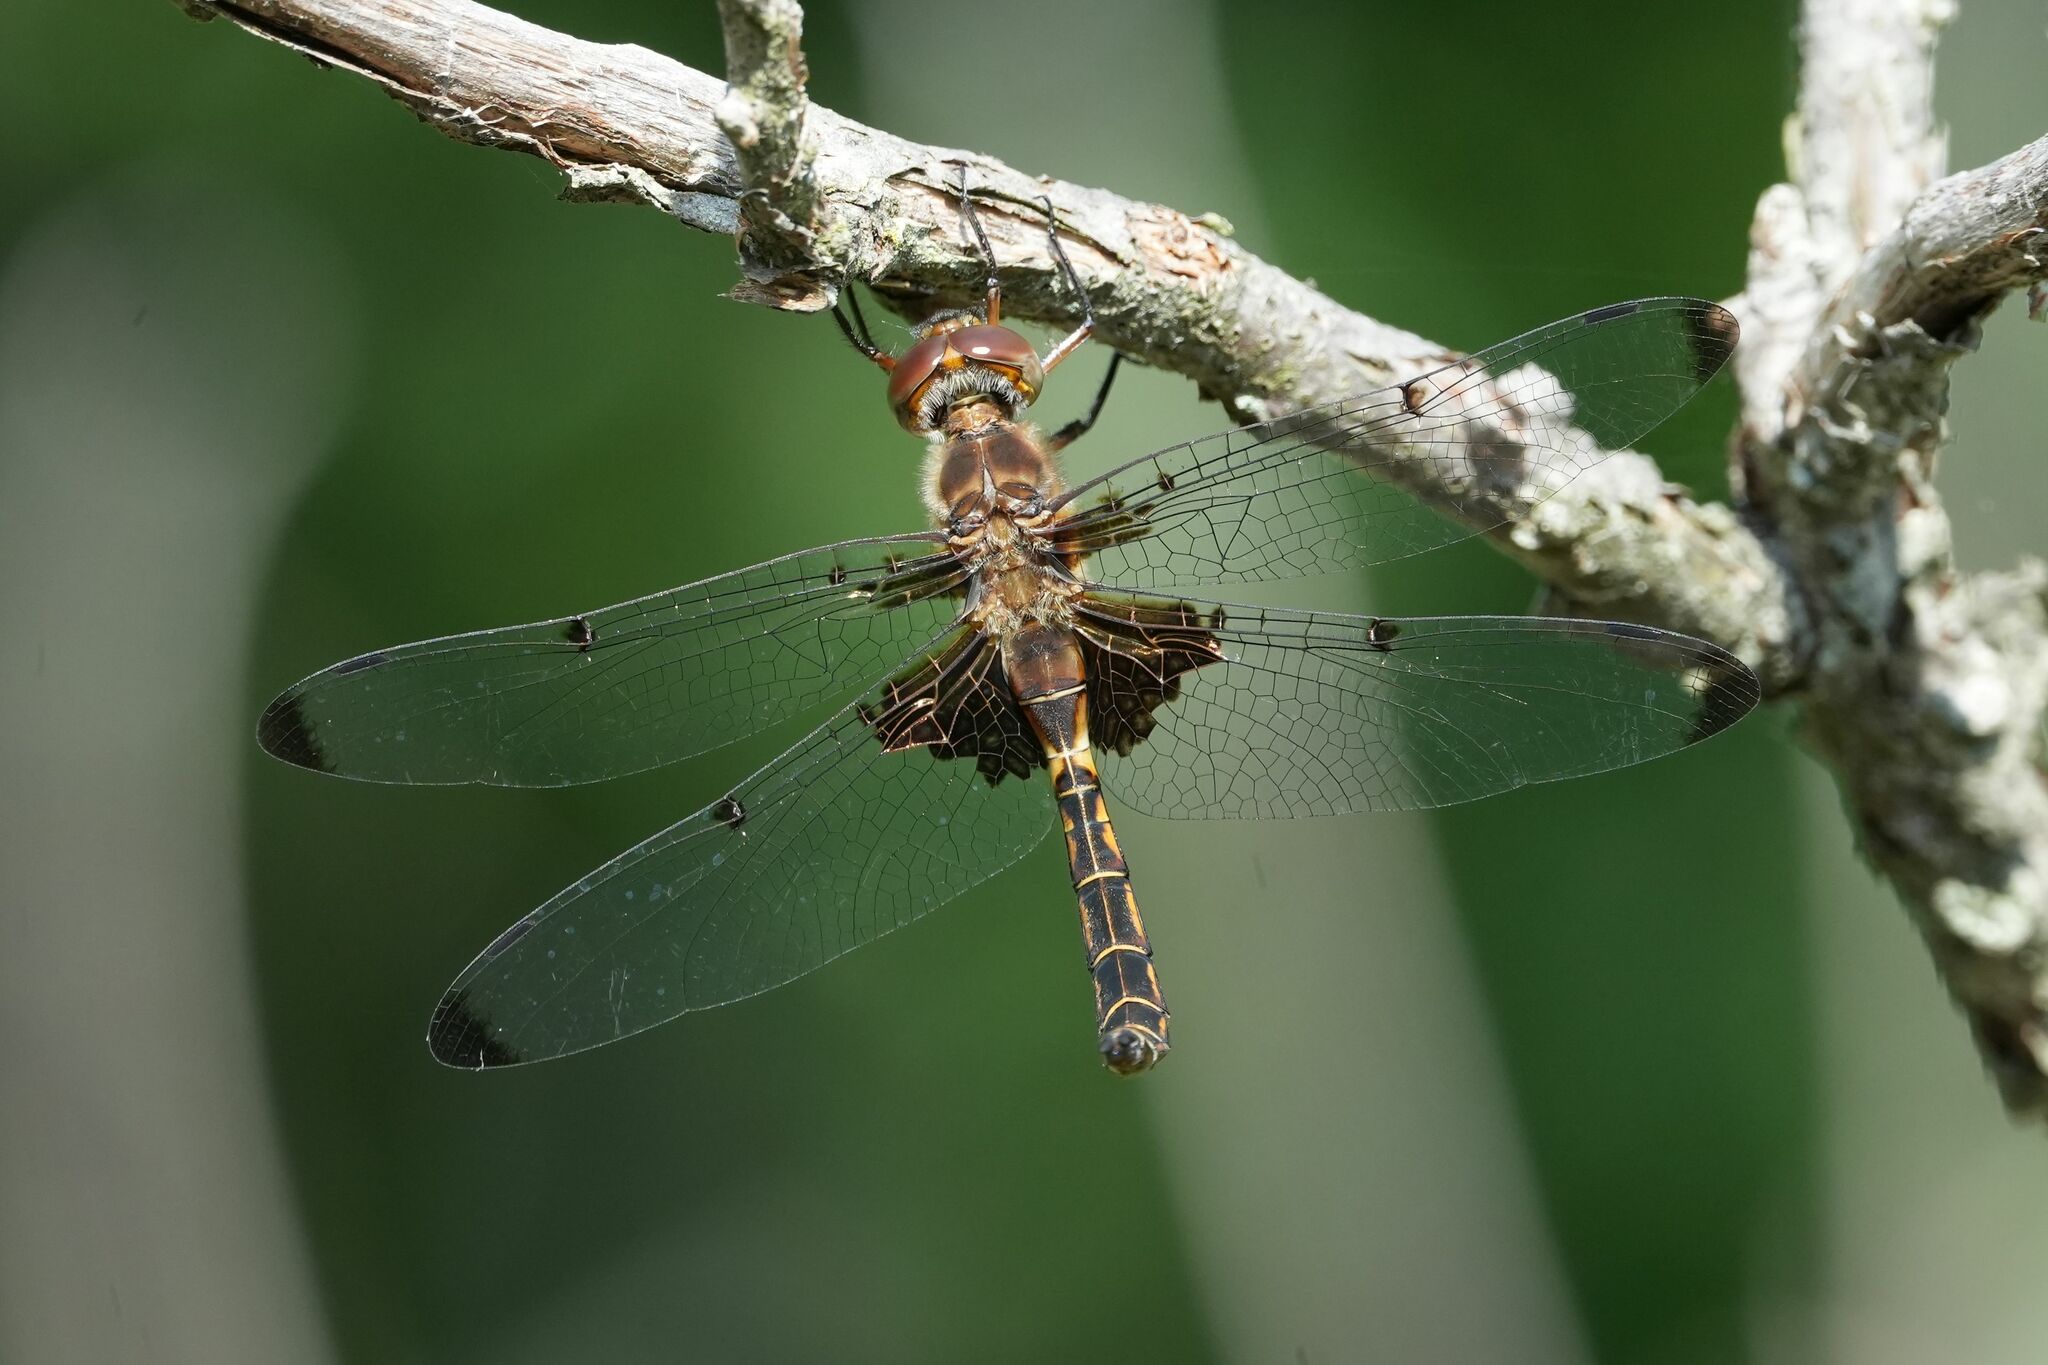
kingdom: Animalia
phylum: Arthropoda
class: Insecta
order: Odonata
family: Corduliidae
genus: Epitheca
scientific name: Epitheca princeps
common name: Prince baskettail
